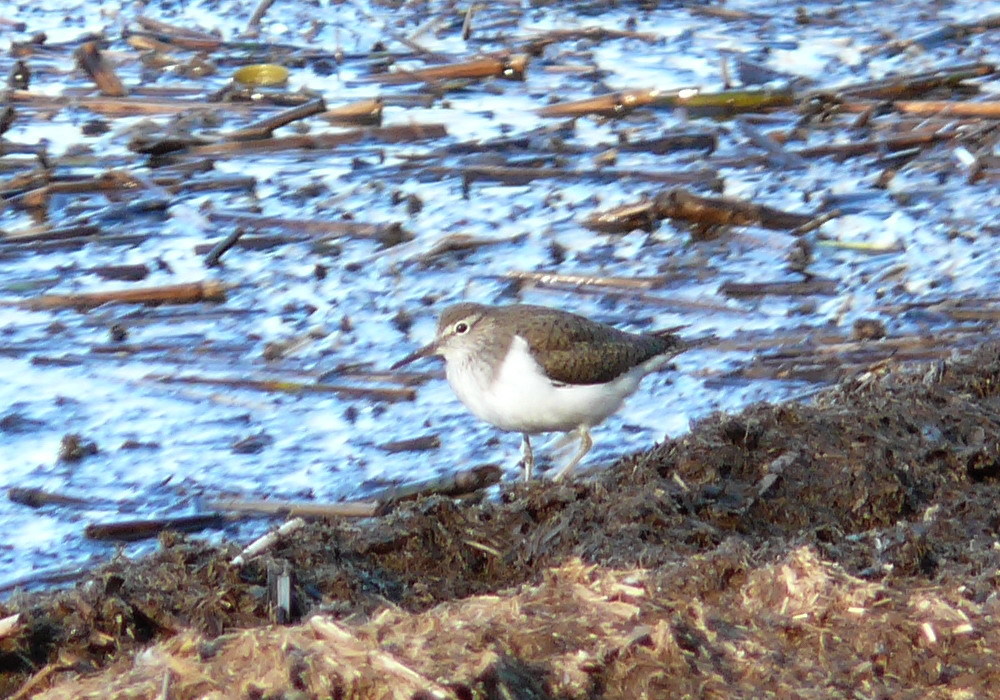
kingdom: Animalia
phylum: Chordata
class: Aves
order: Charadriiformes
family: Scolopacidae
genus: Actitis
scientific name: Actitis hypoleucos
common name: Common sandpiper
